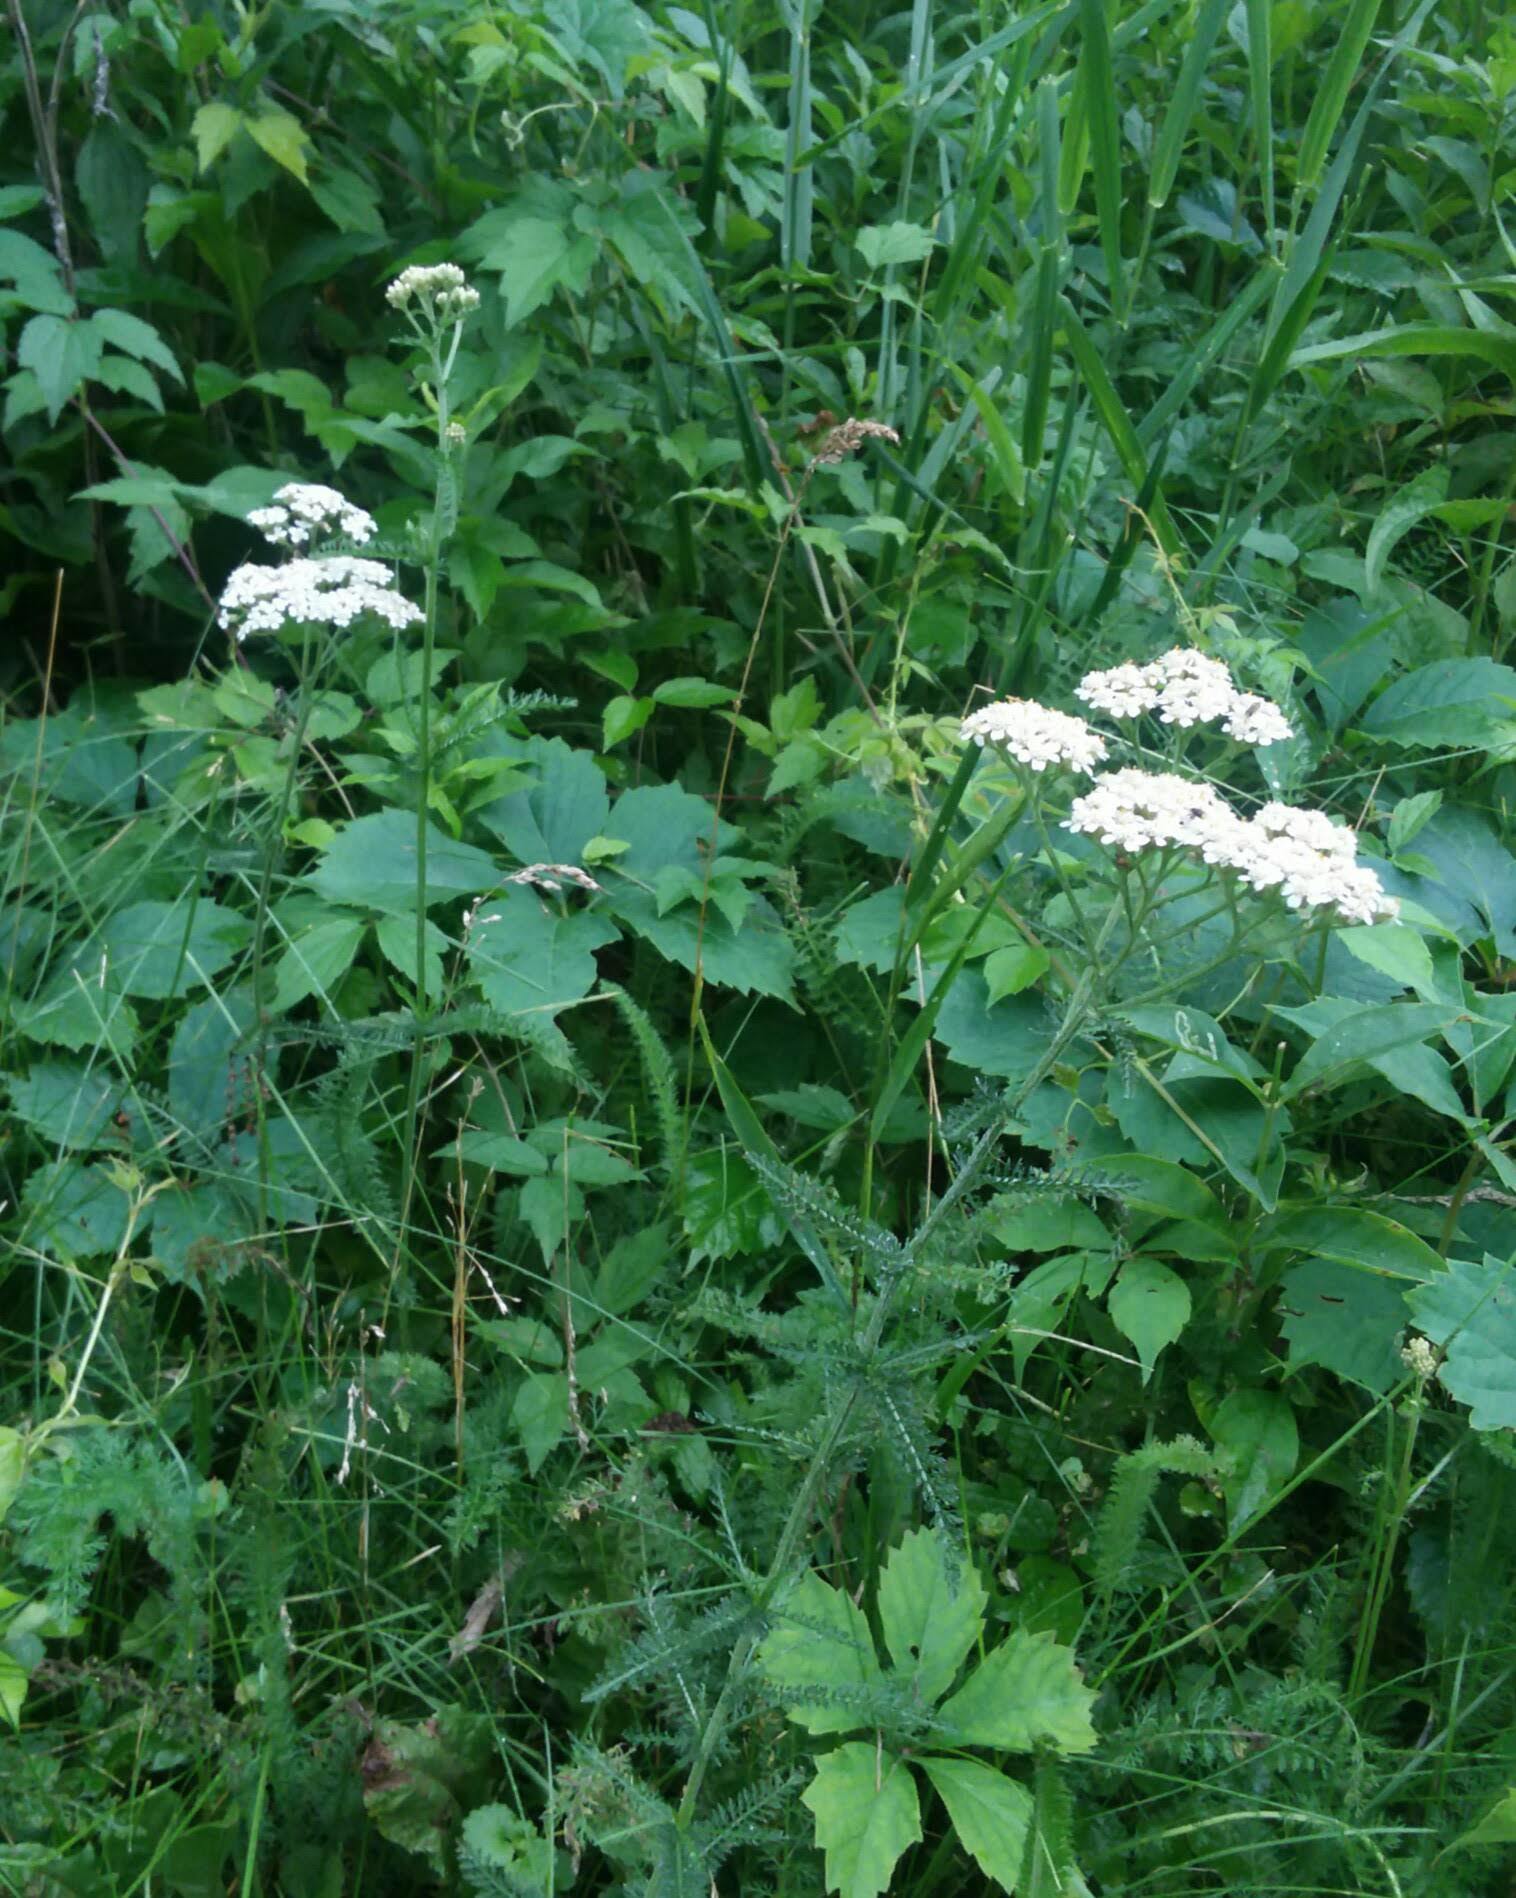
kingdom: Plantae
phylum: Tracheophyta
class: Magnoliopsida
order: Asterales
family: Asteraceae
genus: Achillea
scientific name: Achillea millefolium
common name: Yarrow
